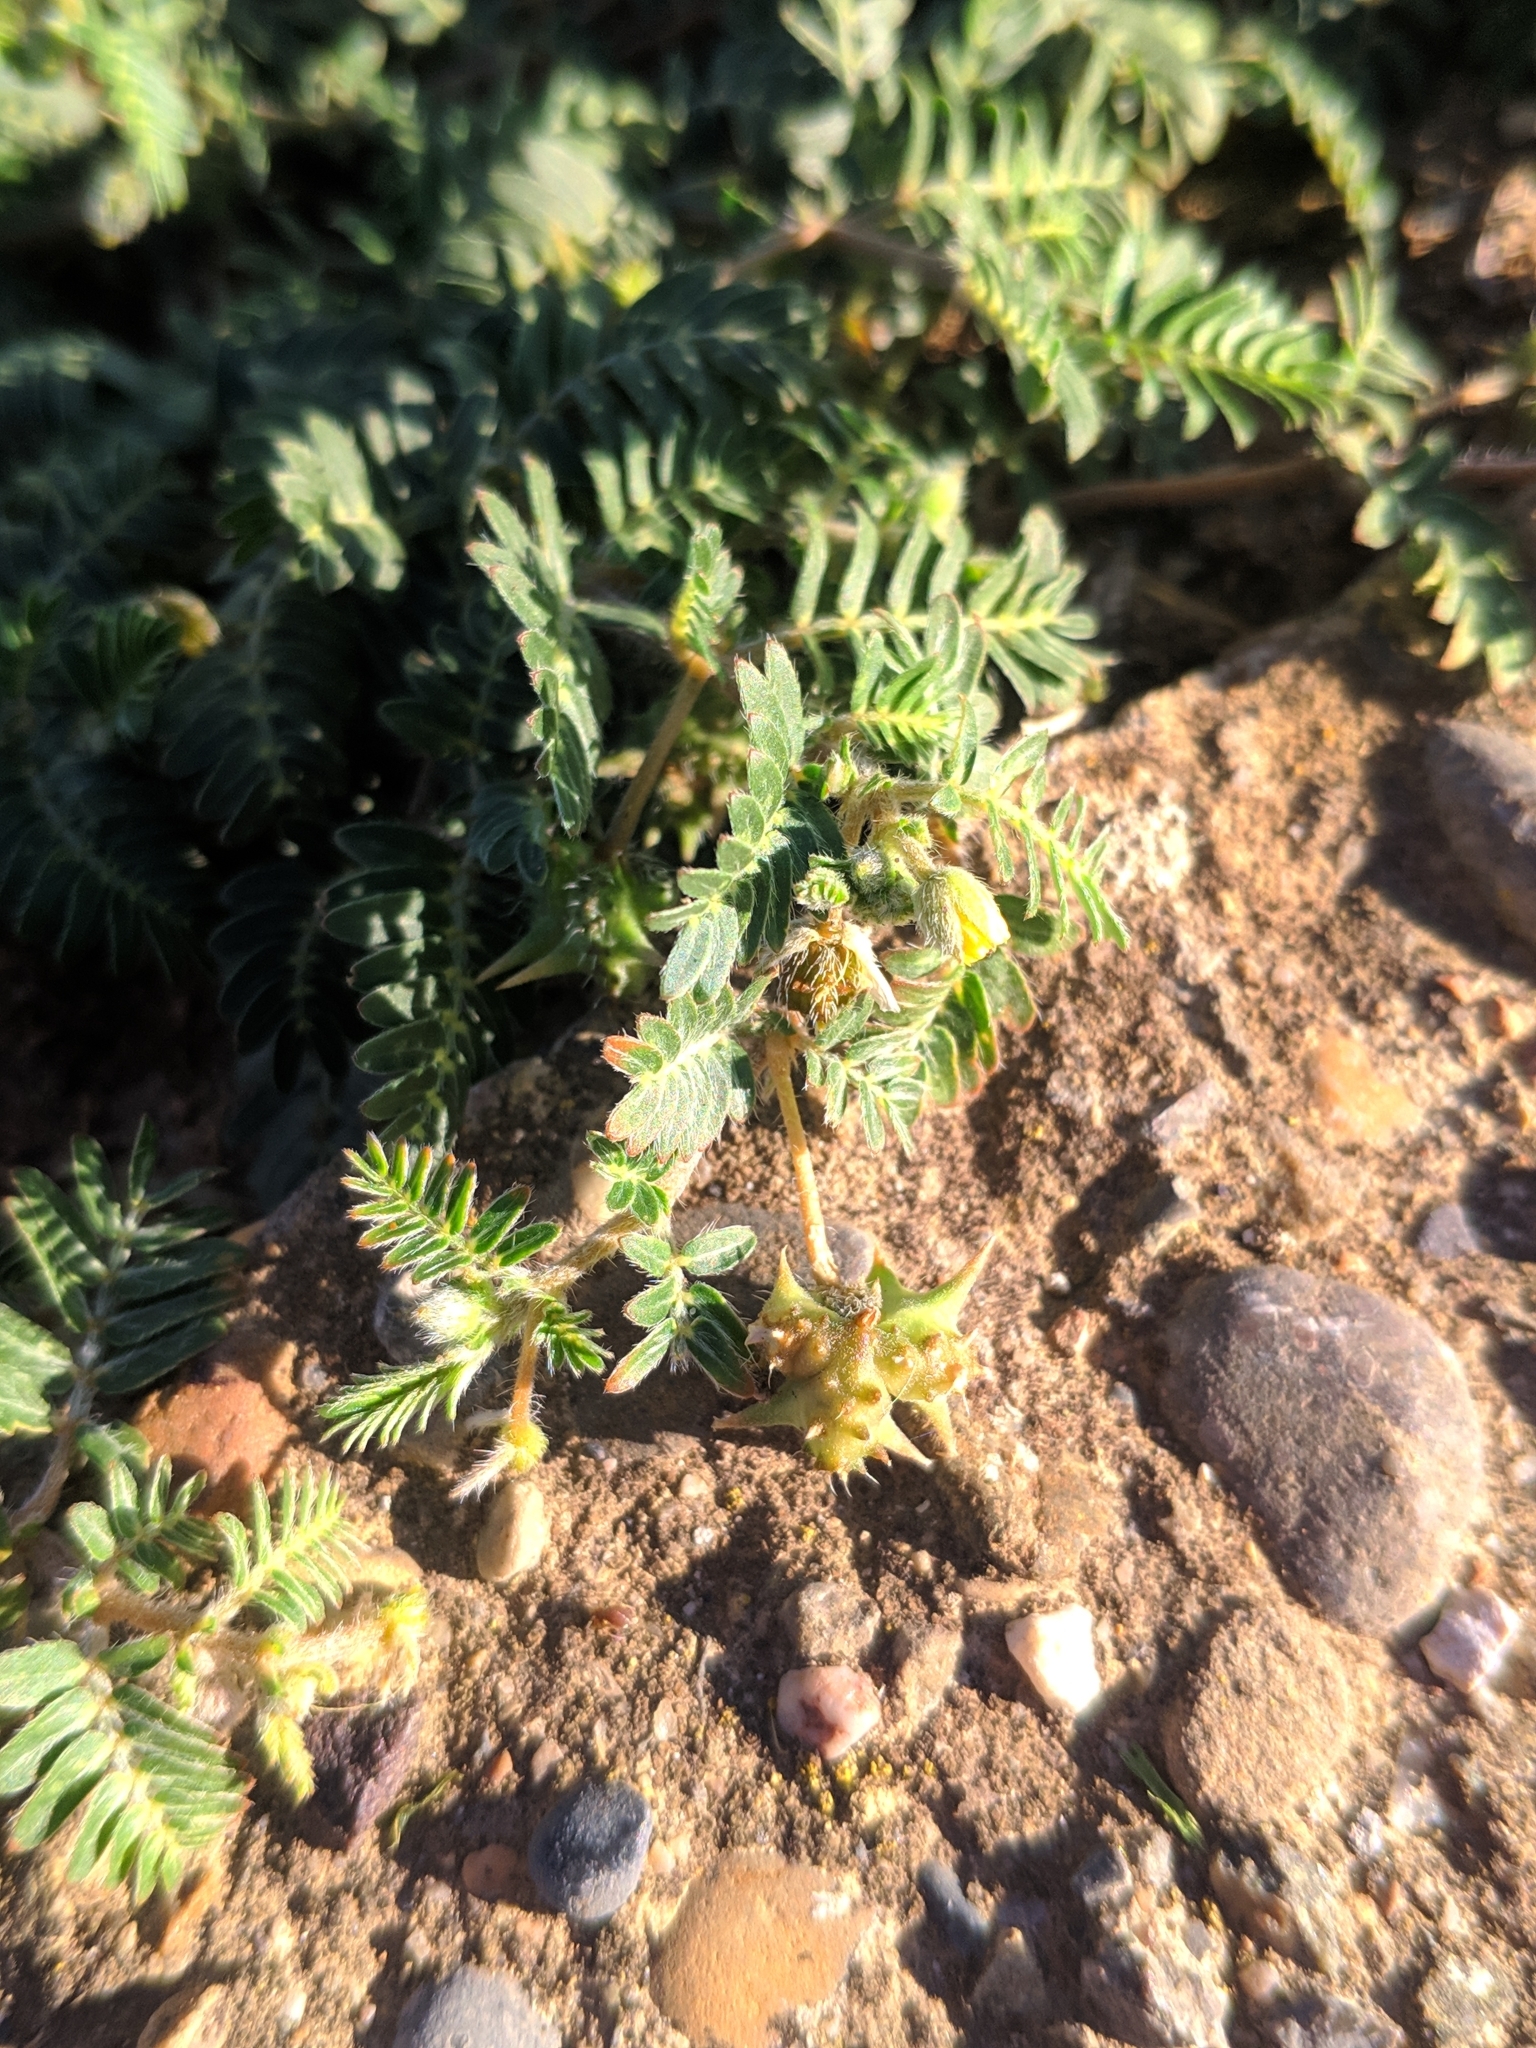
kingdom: Plantae
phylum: Tracheophyta
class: Magnoliopsida
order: Zygophyllales
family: Zygophyllaceae
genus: Tribulus
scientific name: Tribulus terrestris
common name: Puncturevine
